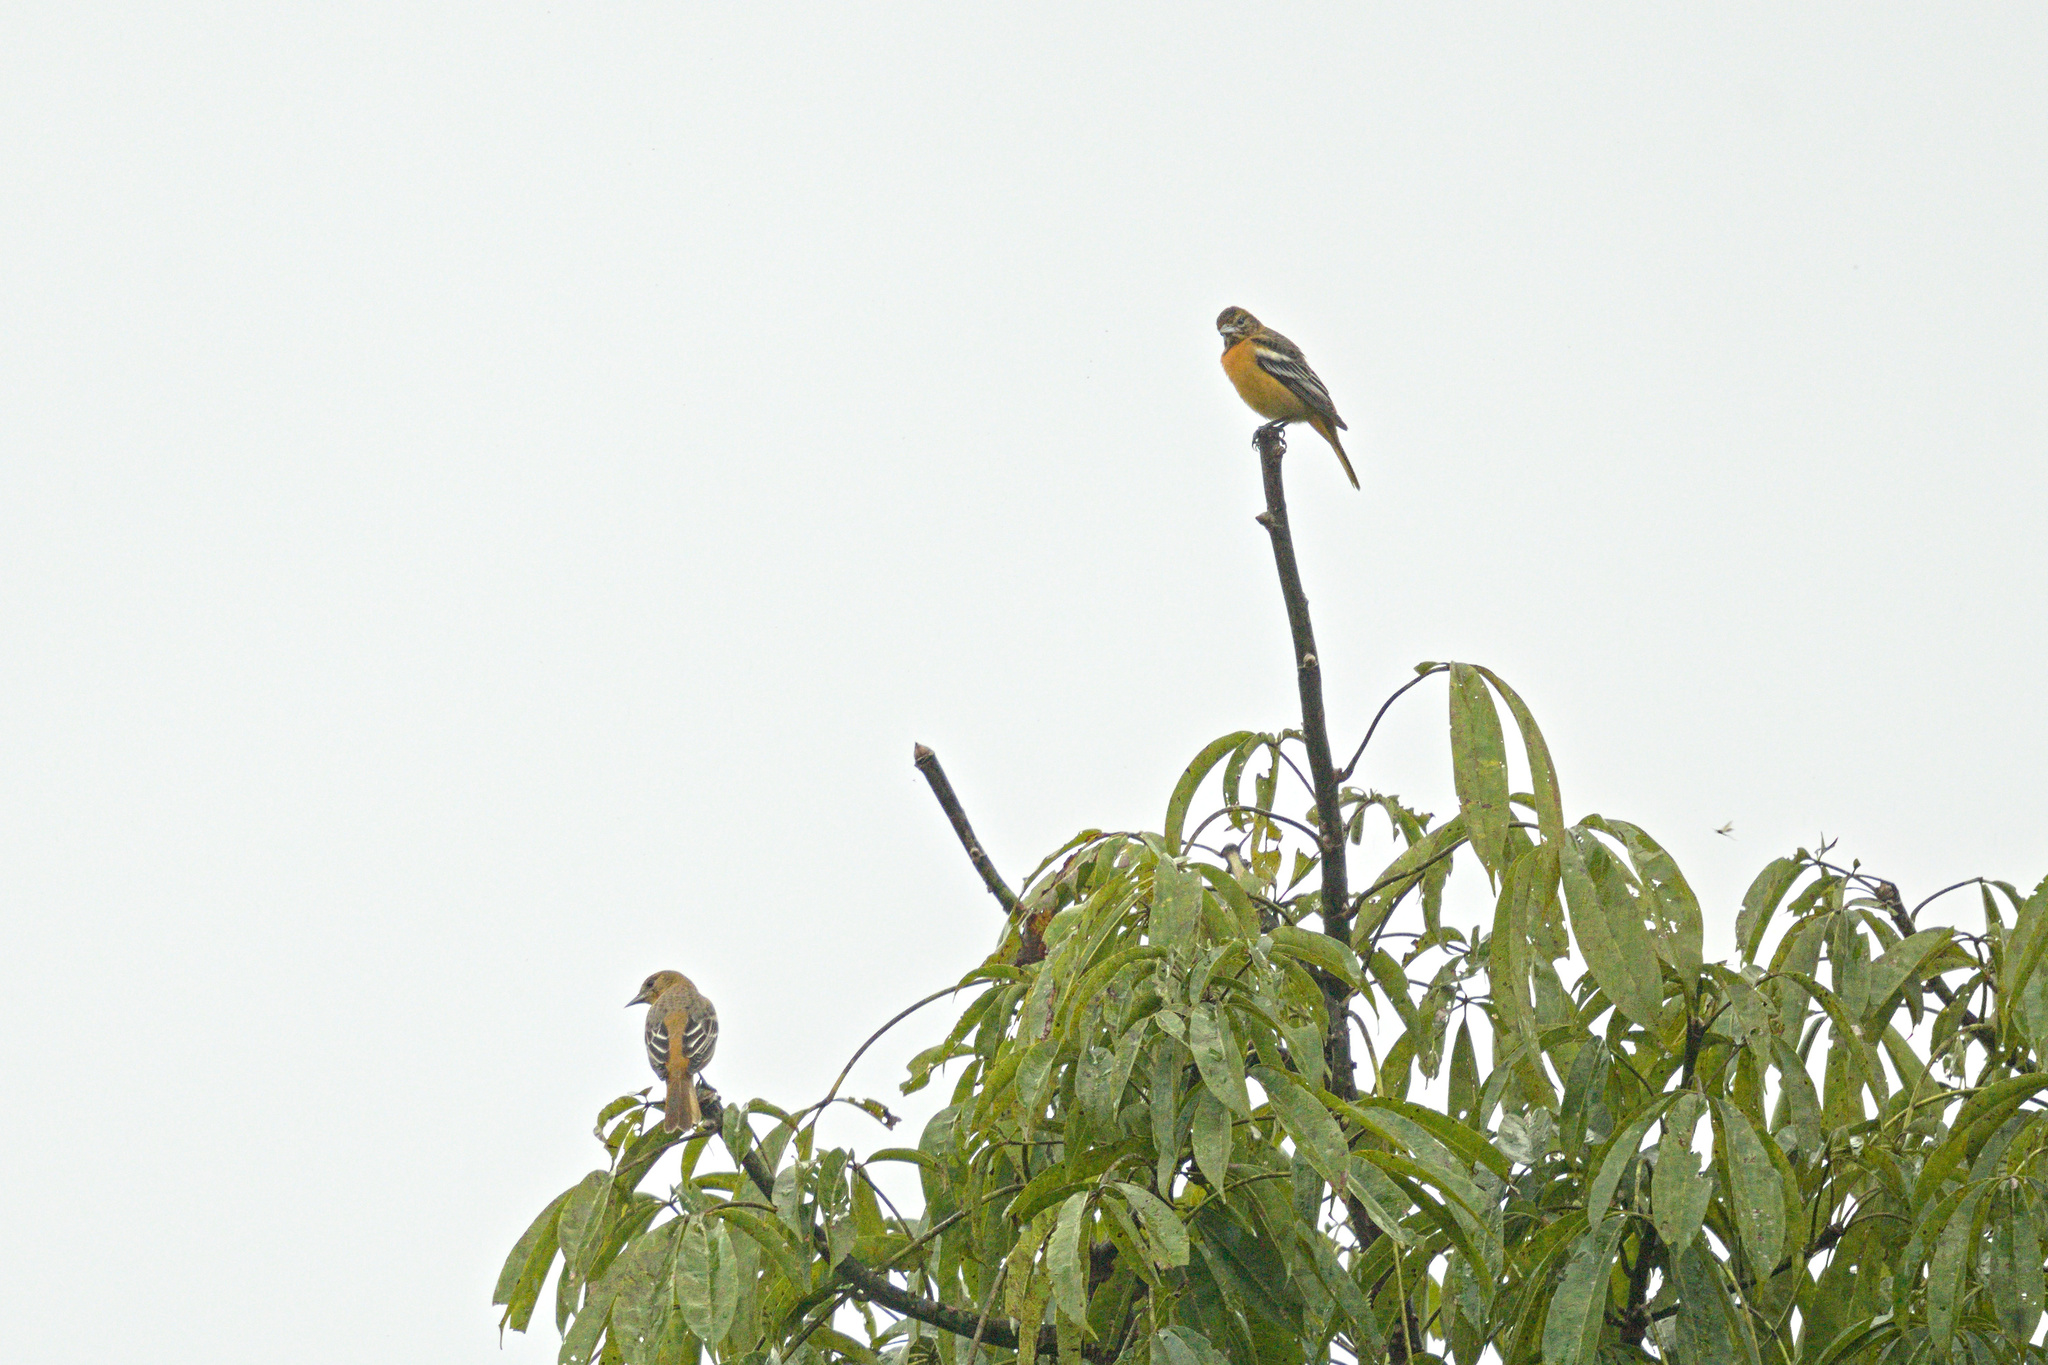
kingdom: Animalia
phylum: Chordata
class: Aves
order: Passeriformes
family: Icteridae
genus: Icterus
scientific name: Icterus galbula
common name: Baltimore oriole
